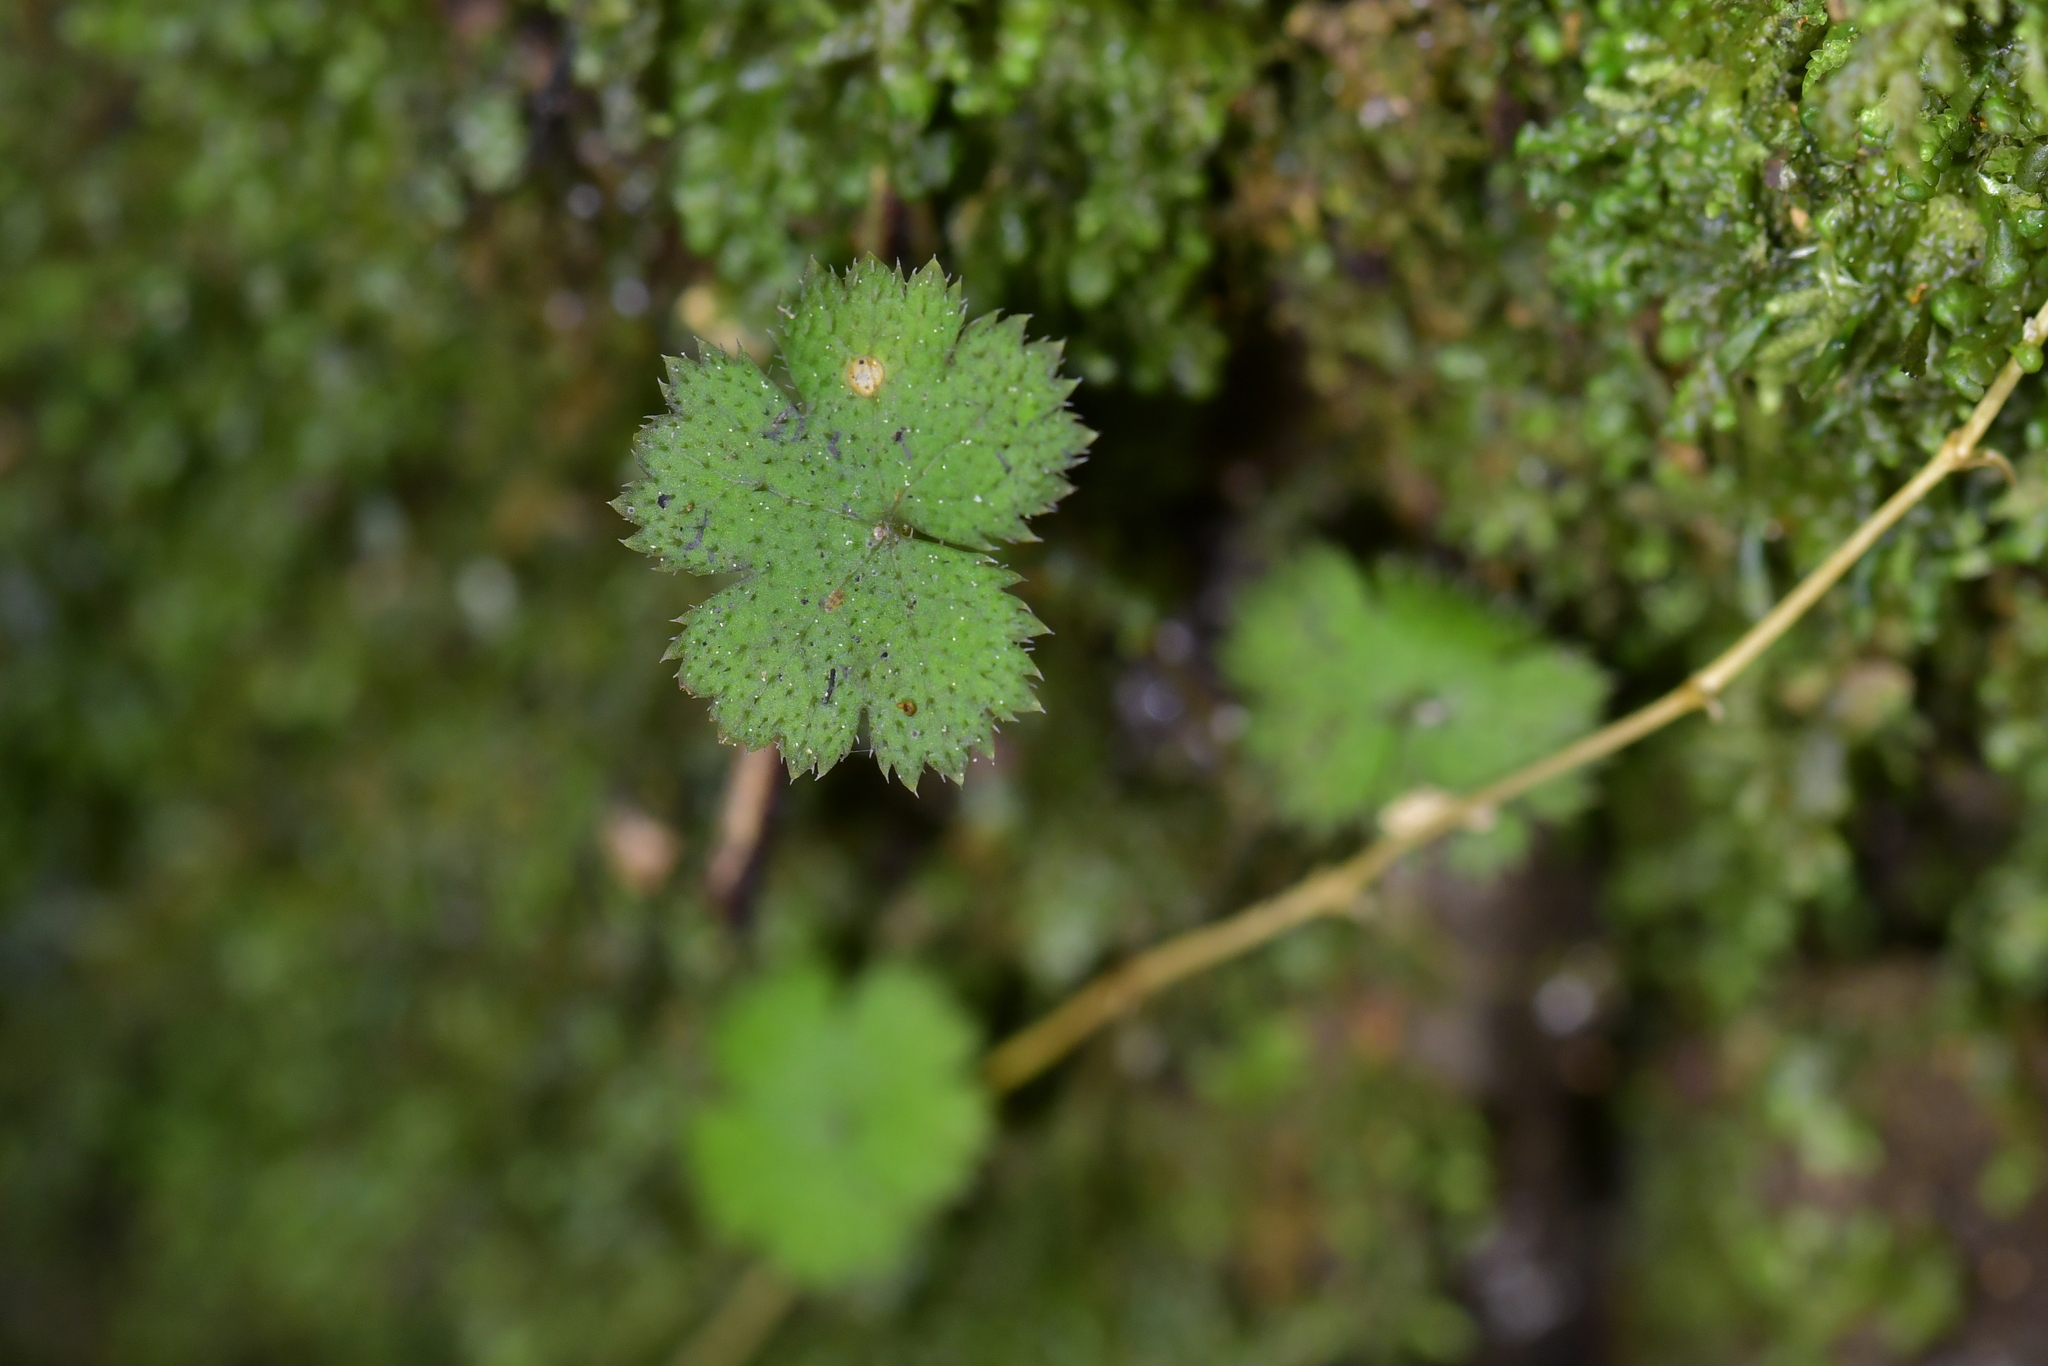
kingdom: Plantae
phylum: Tracheophyta
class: Magnoliopsida
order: Apiales
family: Araliaceae
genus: Hydrocotyle
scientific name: Hydrocotyle elongata
